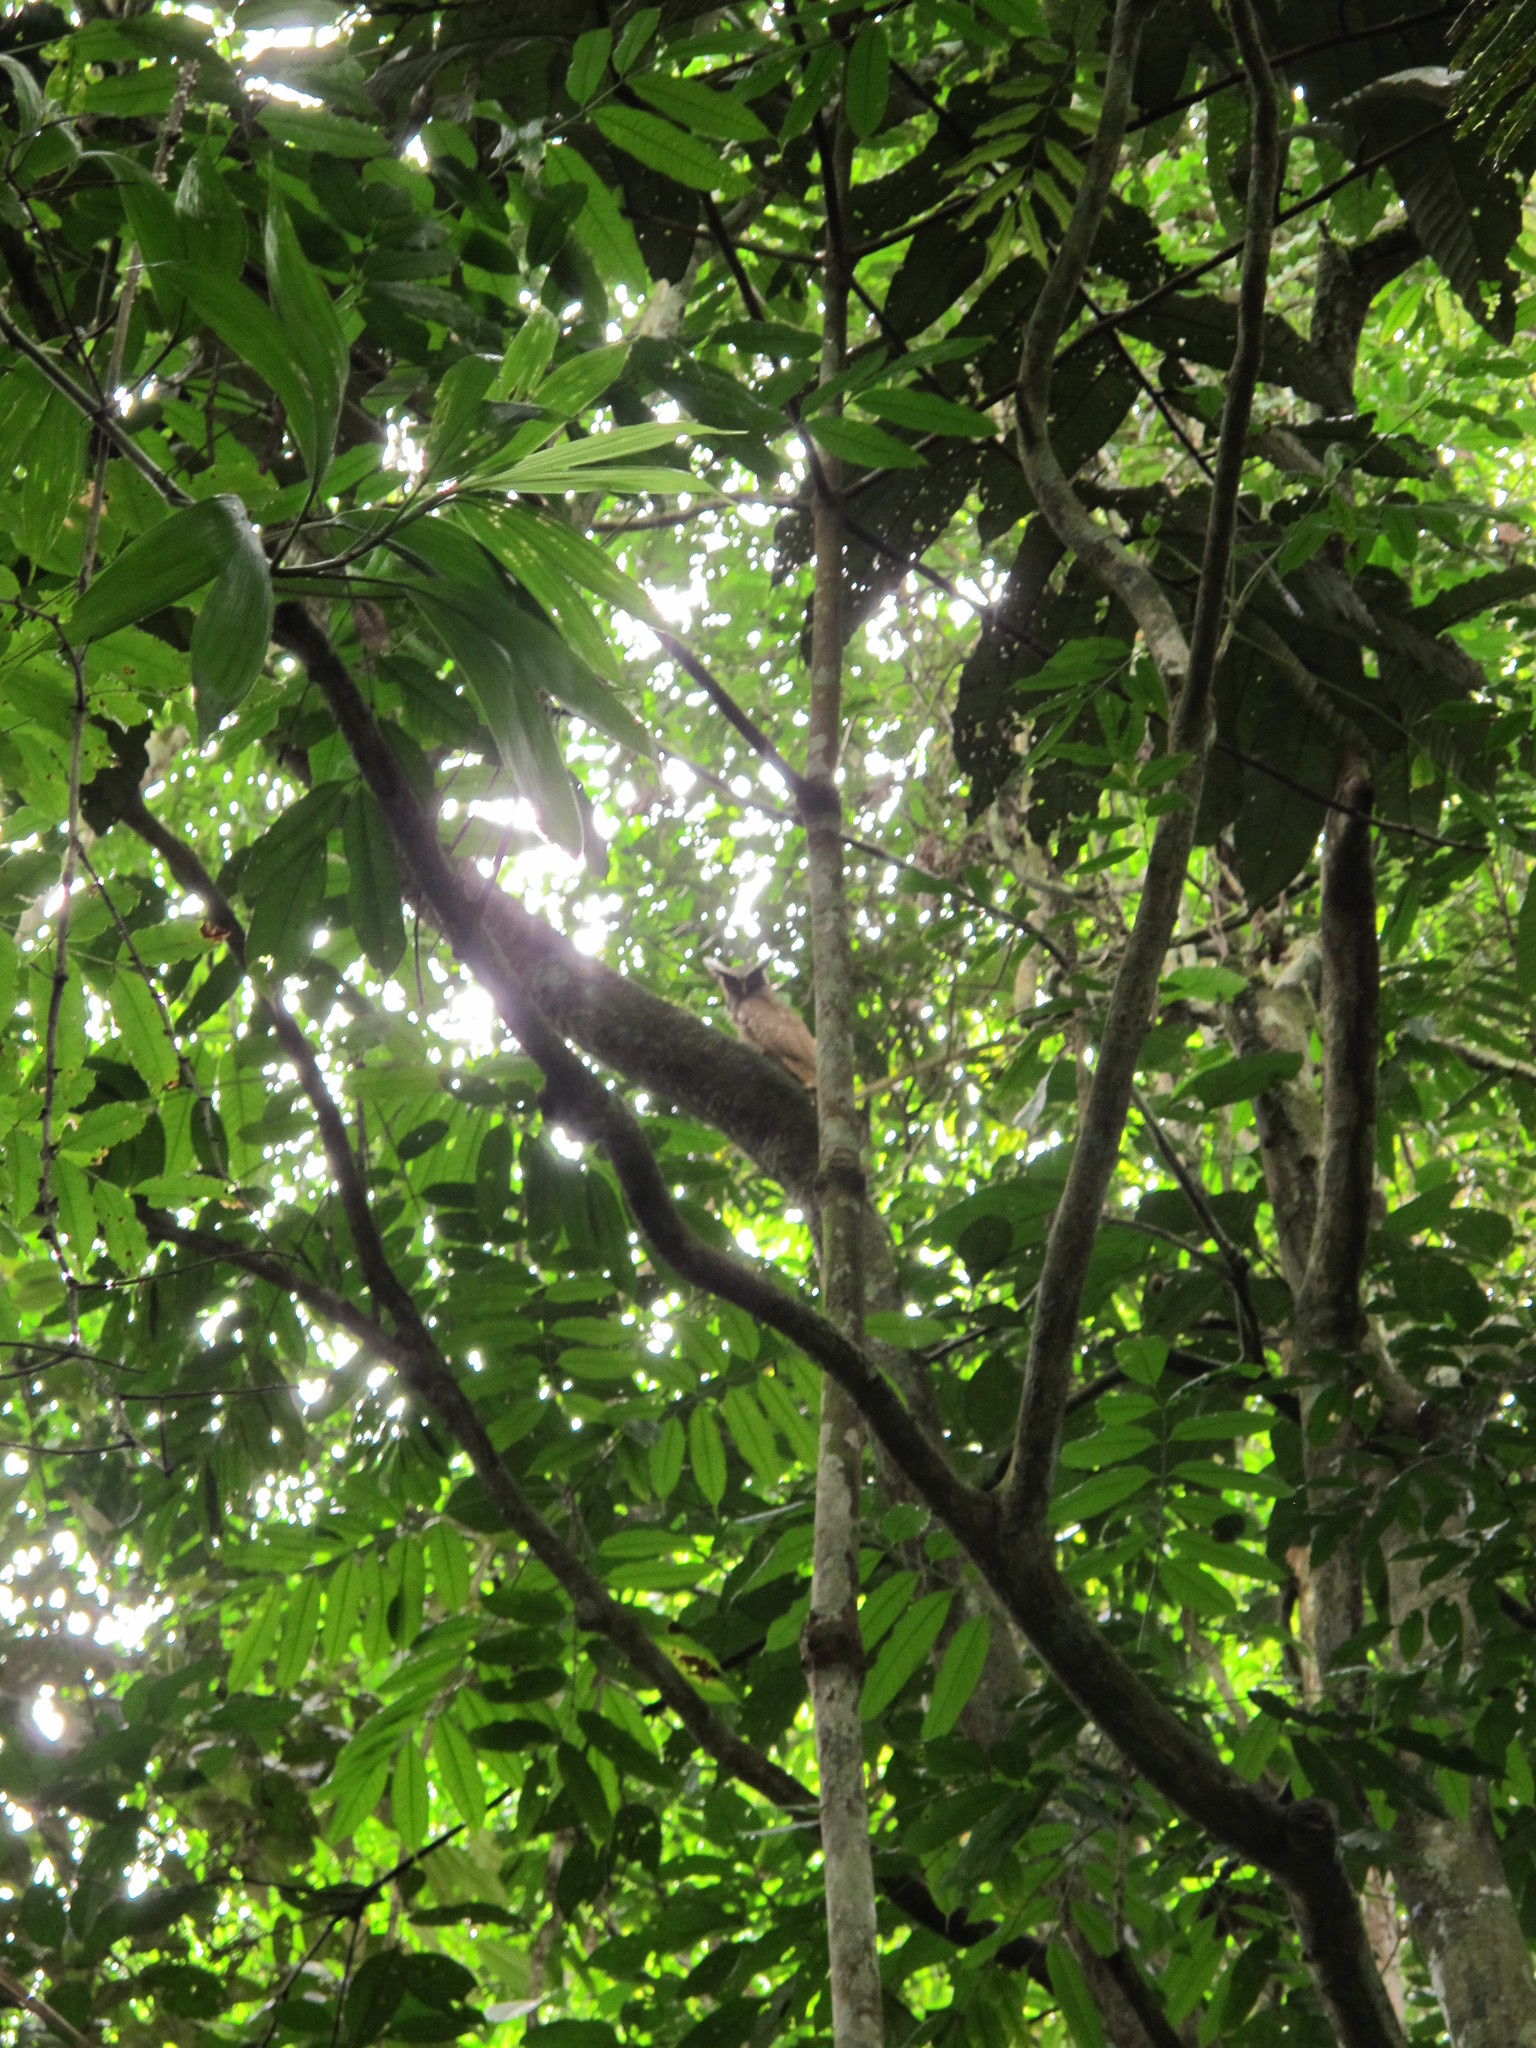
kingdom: Animalia
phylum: Chordata
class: Aves
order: Strigiformes
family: Strigidae
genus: Lophostrix
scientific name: Lophostrix cristata
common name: Crested owl
